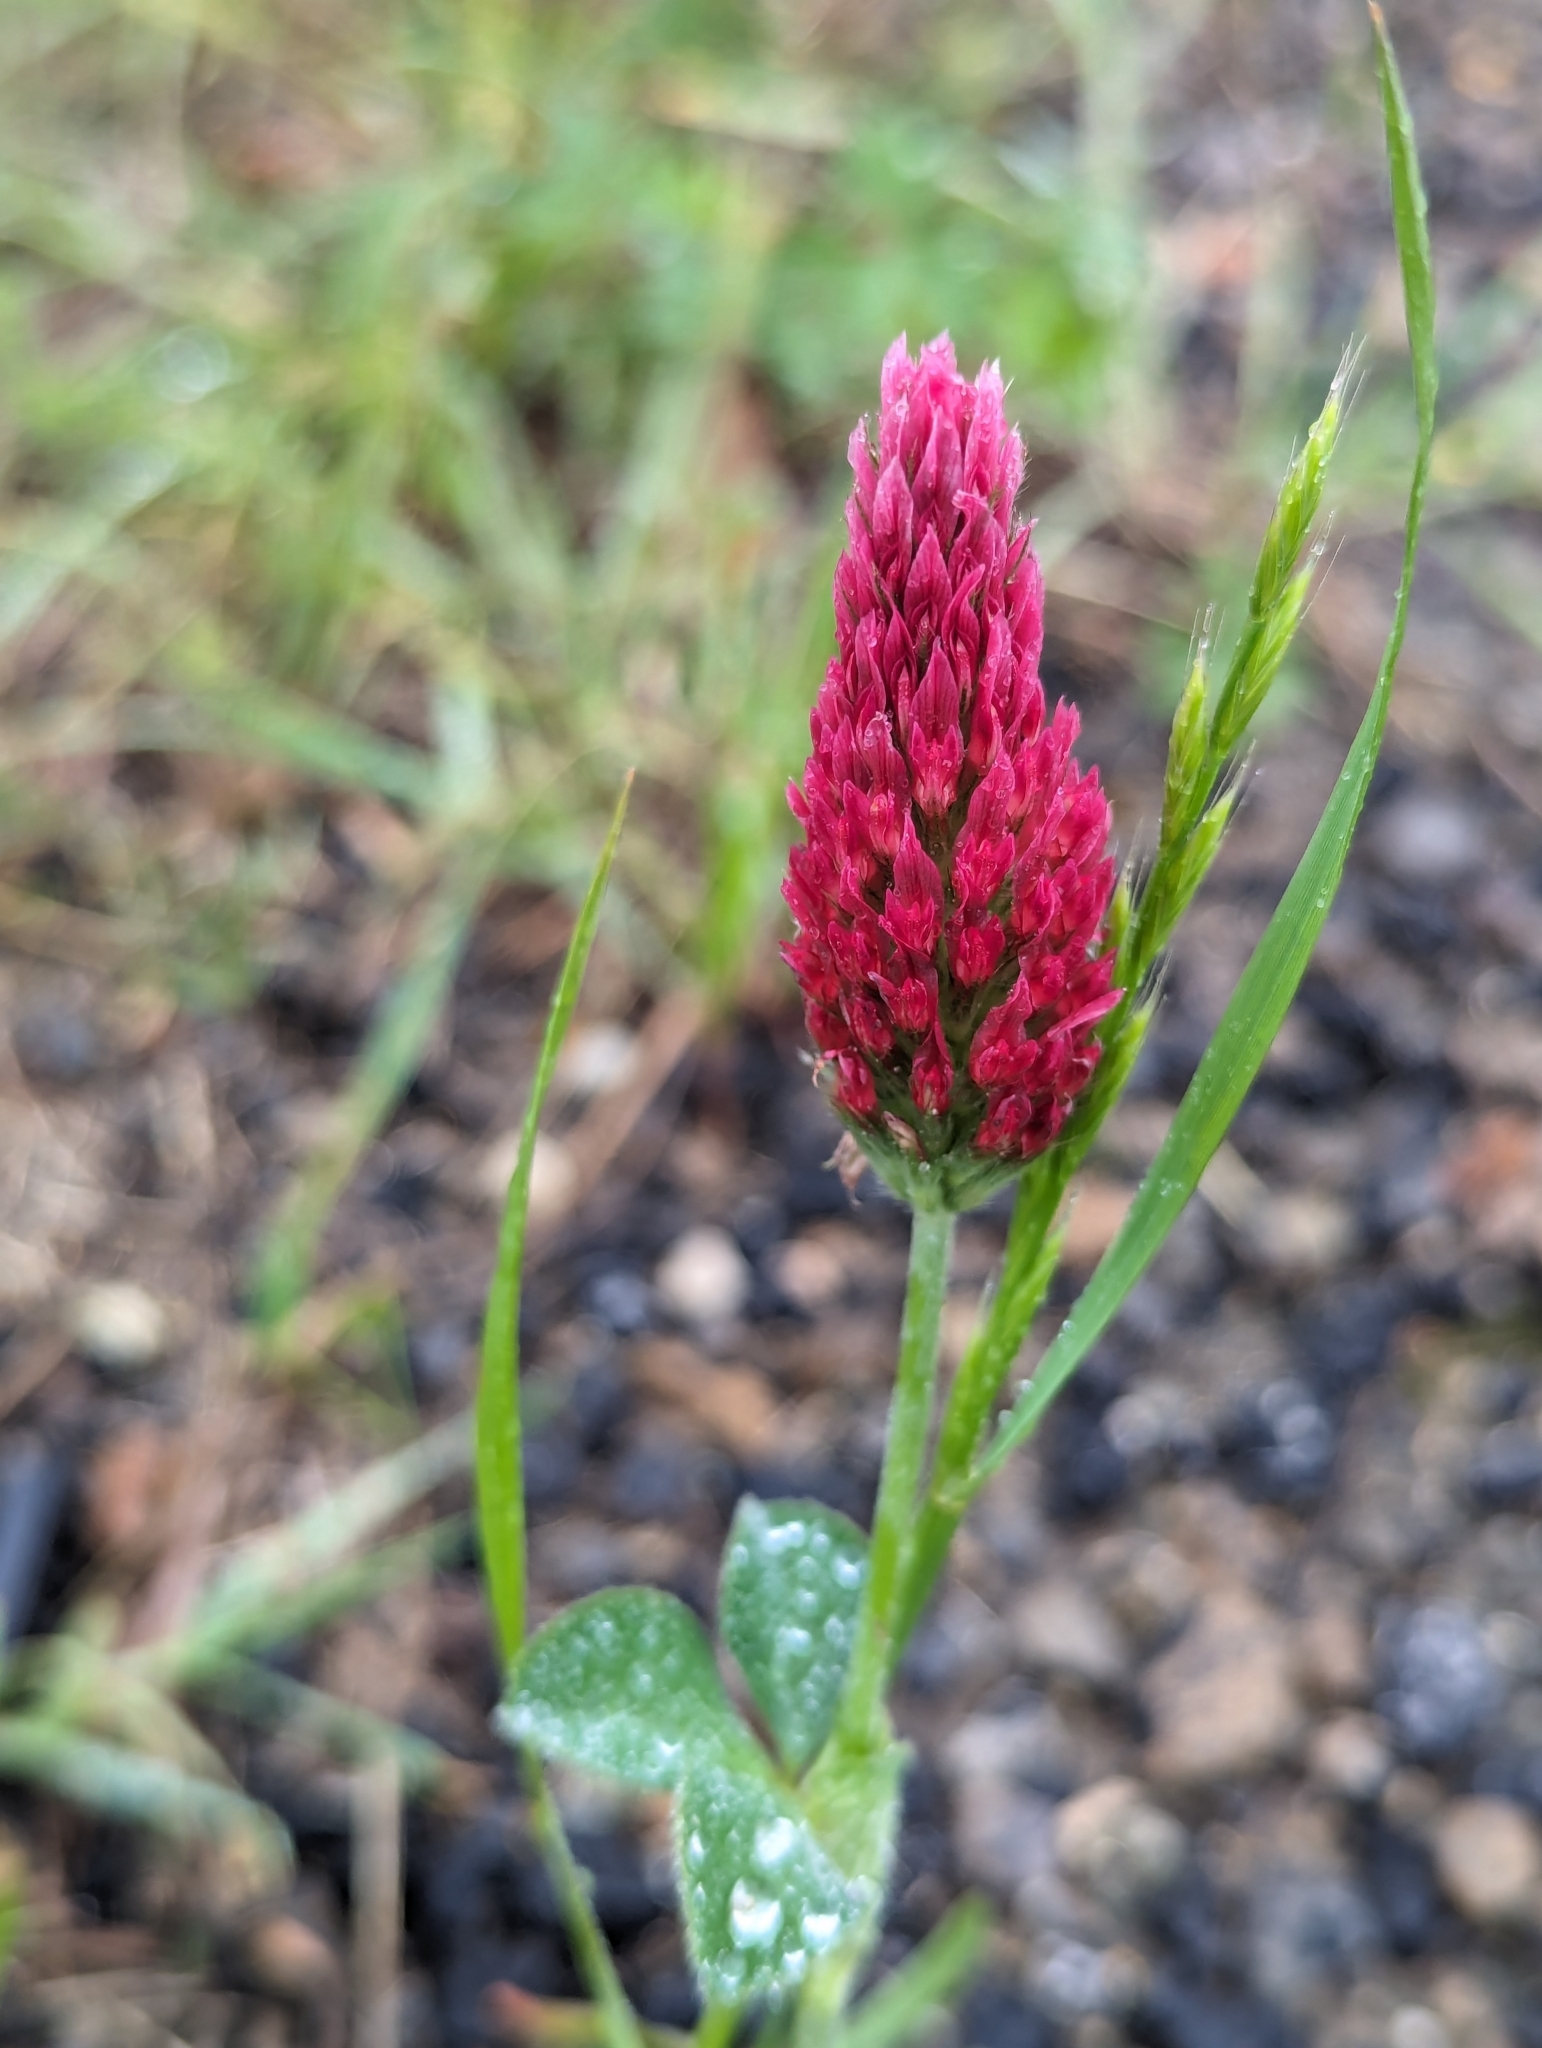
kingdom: Plantae
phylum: Tracheophyta
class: Magnoliopsida
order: Fabales
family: Fabaceae
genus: Trifolium
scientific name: Trifolium incarnatum
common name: Crimson clover
